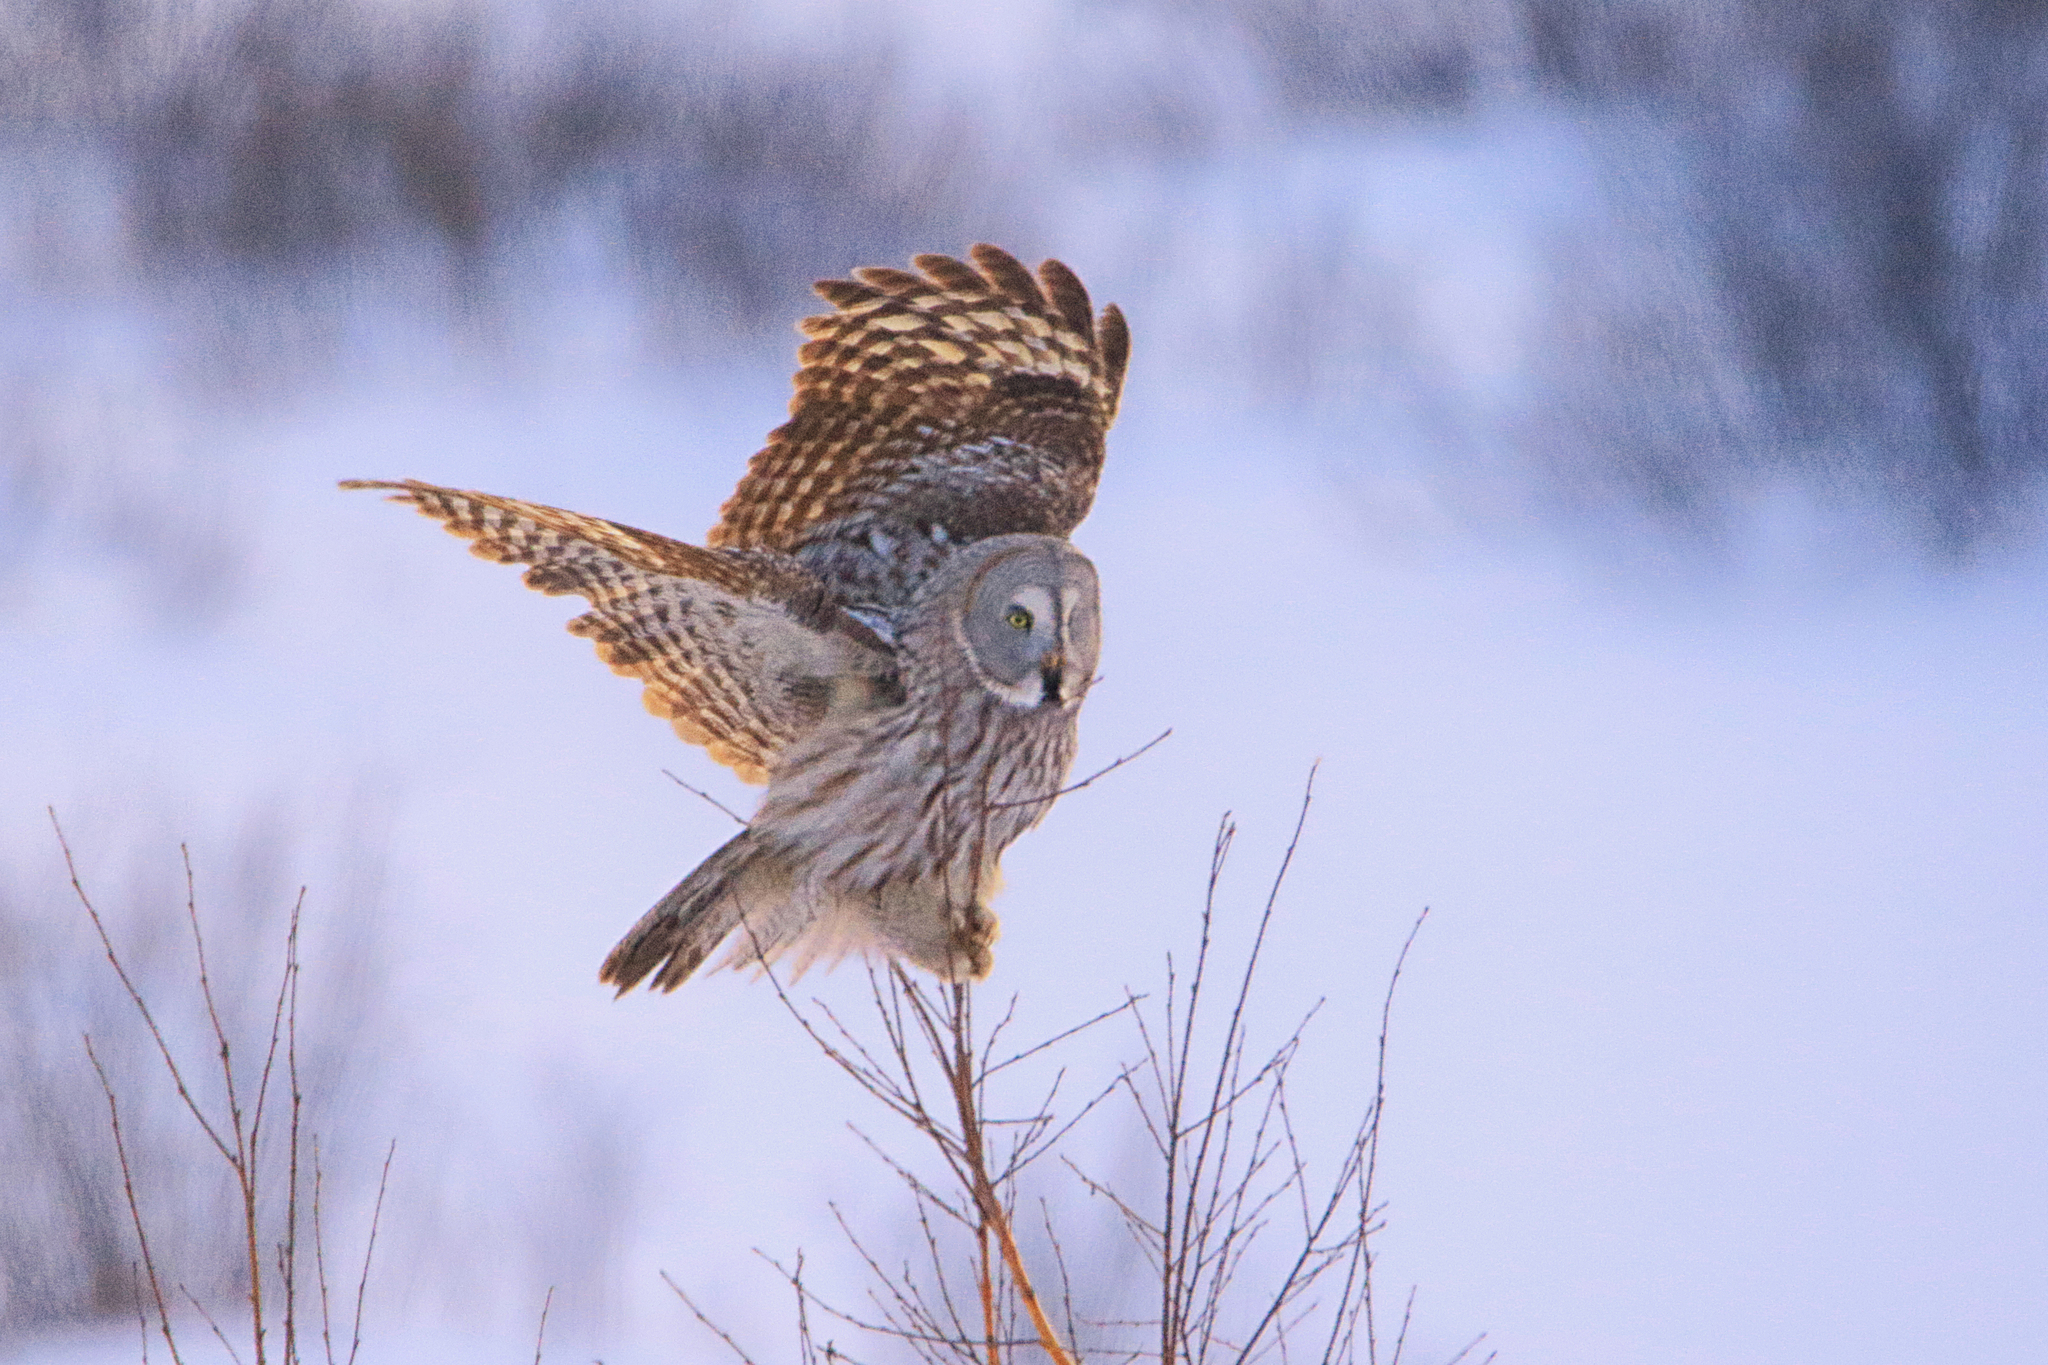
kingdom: Animalia
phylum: Chordata
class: Aves
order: Strigiformes
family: Strigidae
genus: Strix
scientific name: Strix nebulosa
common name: Great grey owl
